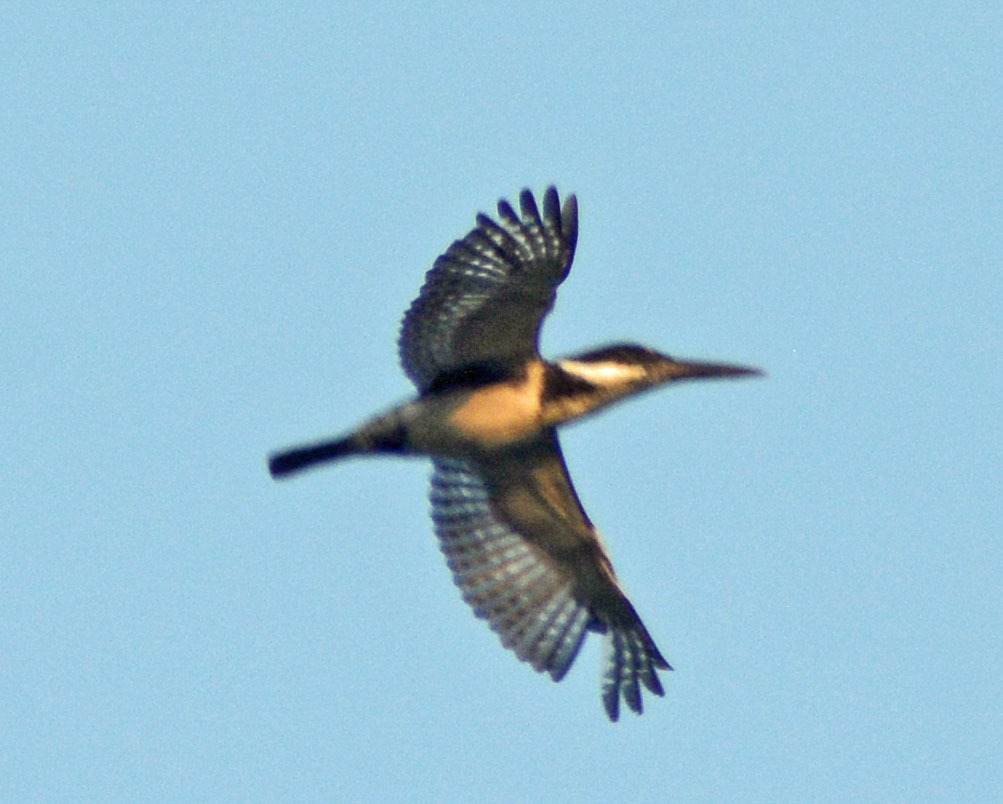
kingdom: Animalia
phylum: Chordata
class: Aves
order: Coraciiformes
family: Alcedinidae
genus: Chloroceryle
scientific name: Chloroceryle amazona
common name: Amazon kingfisher
